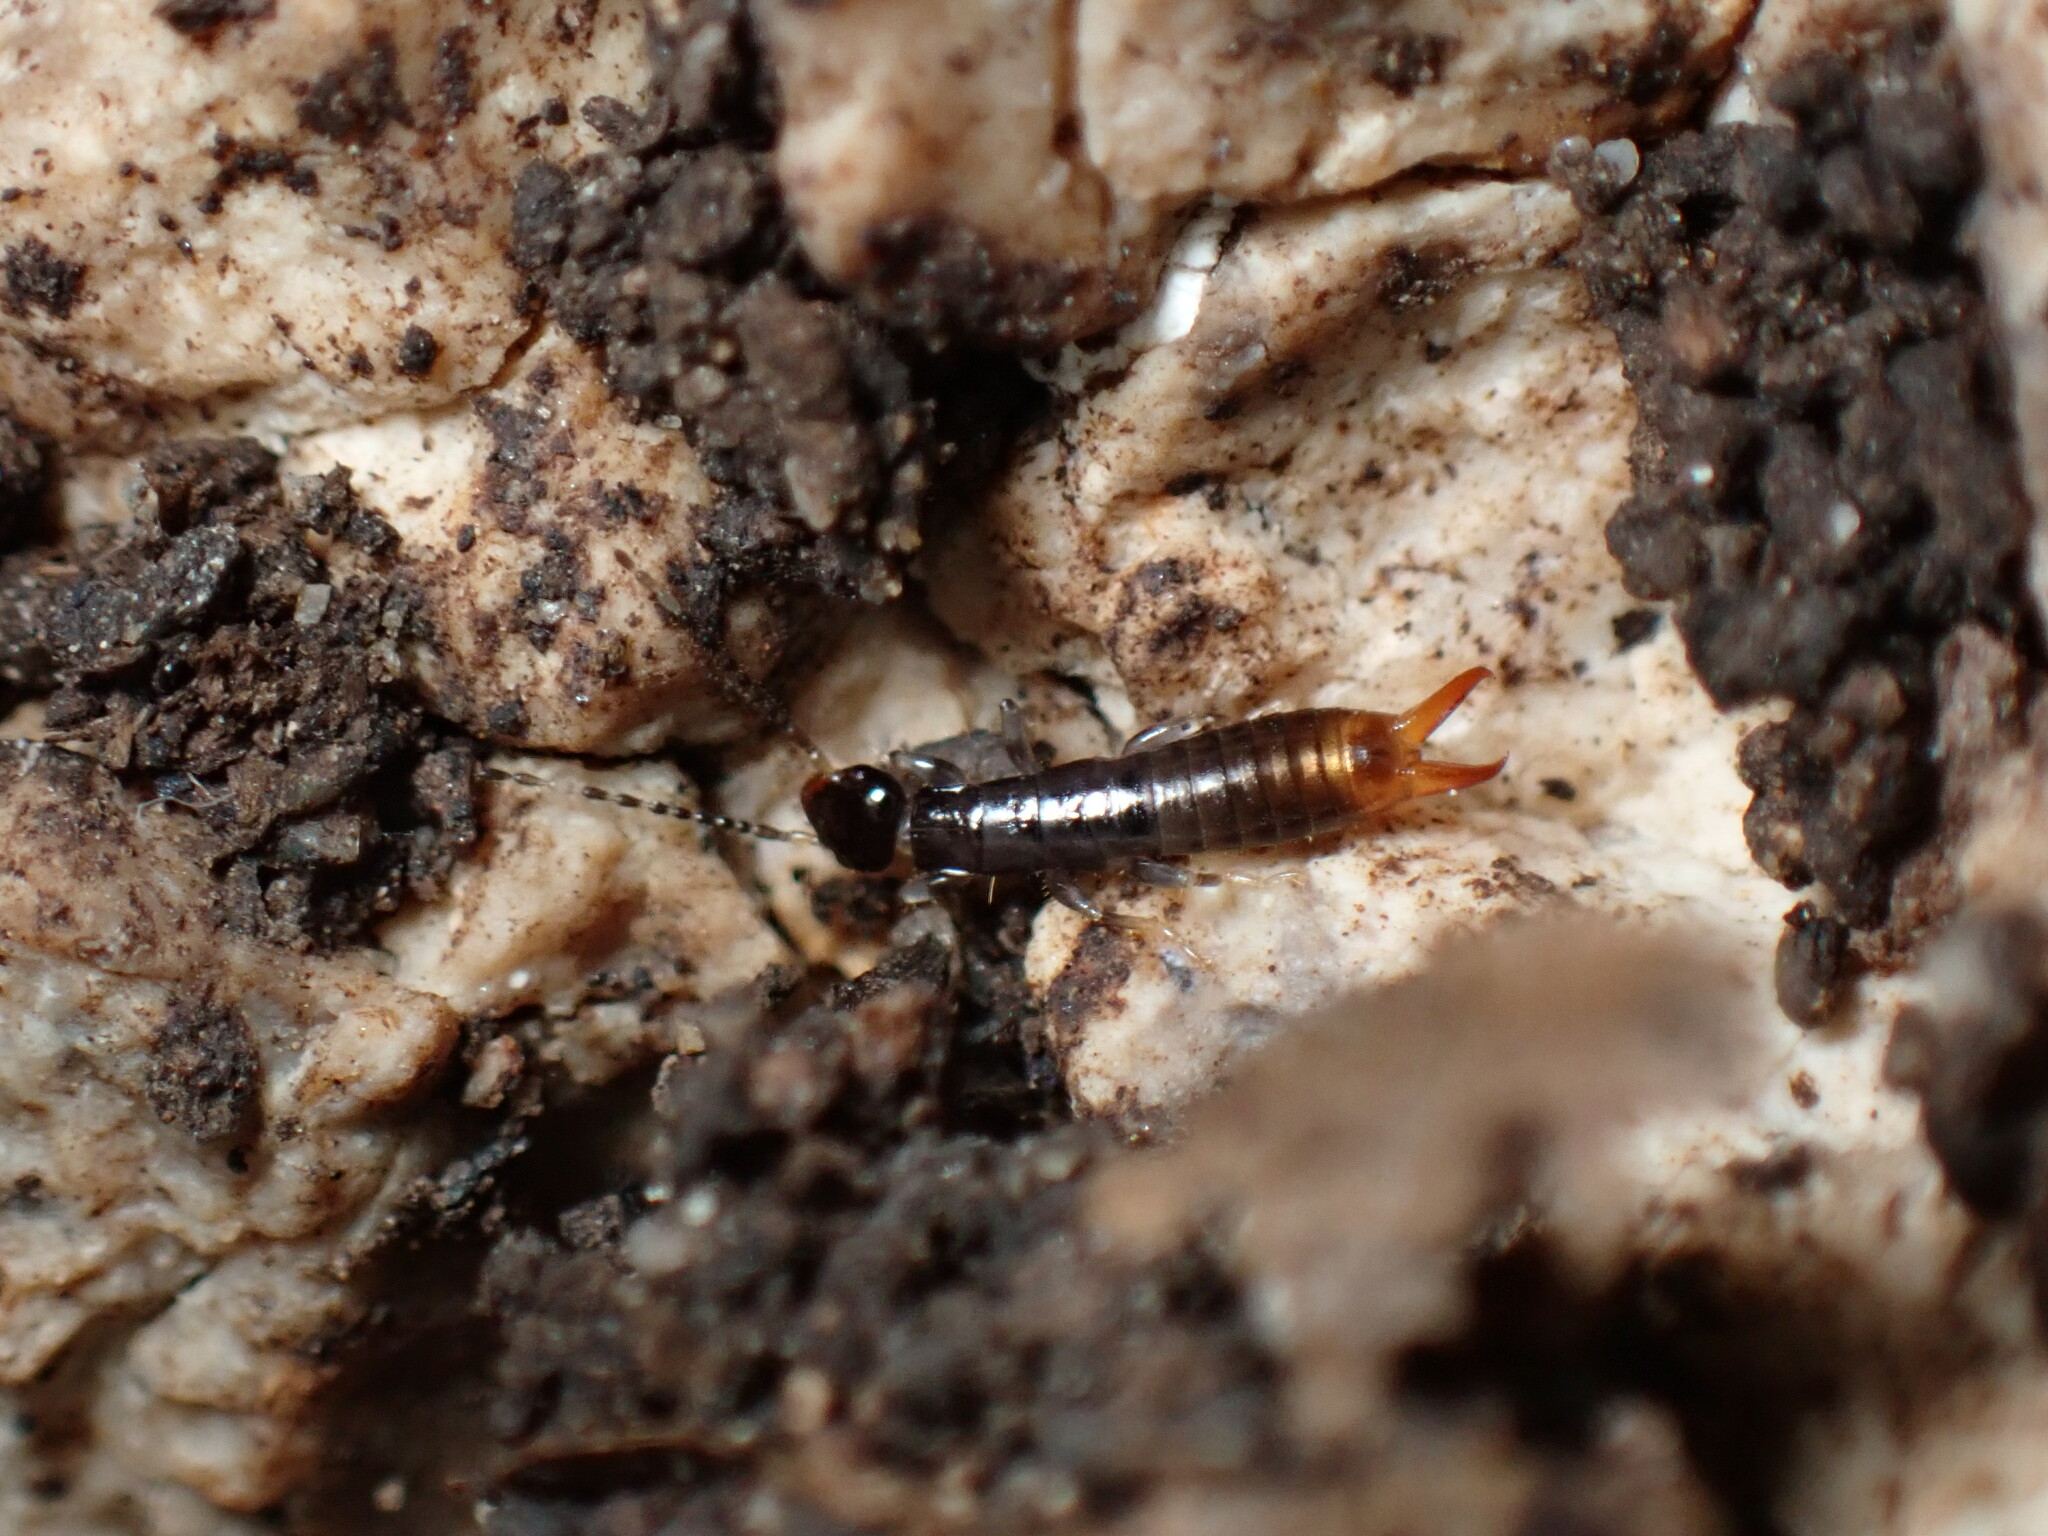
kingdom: Animalia
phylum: Arthropoda
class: Insecta
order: Dermaptera
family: Anisolabididae
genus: Euborellia
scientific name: Euborellia annulipes
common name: Ringlegged earwig
